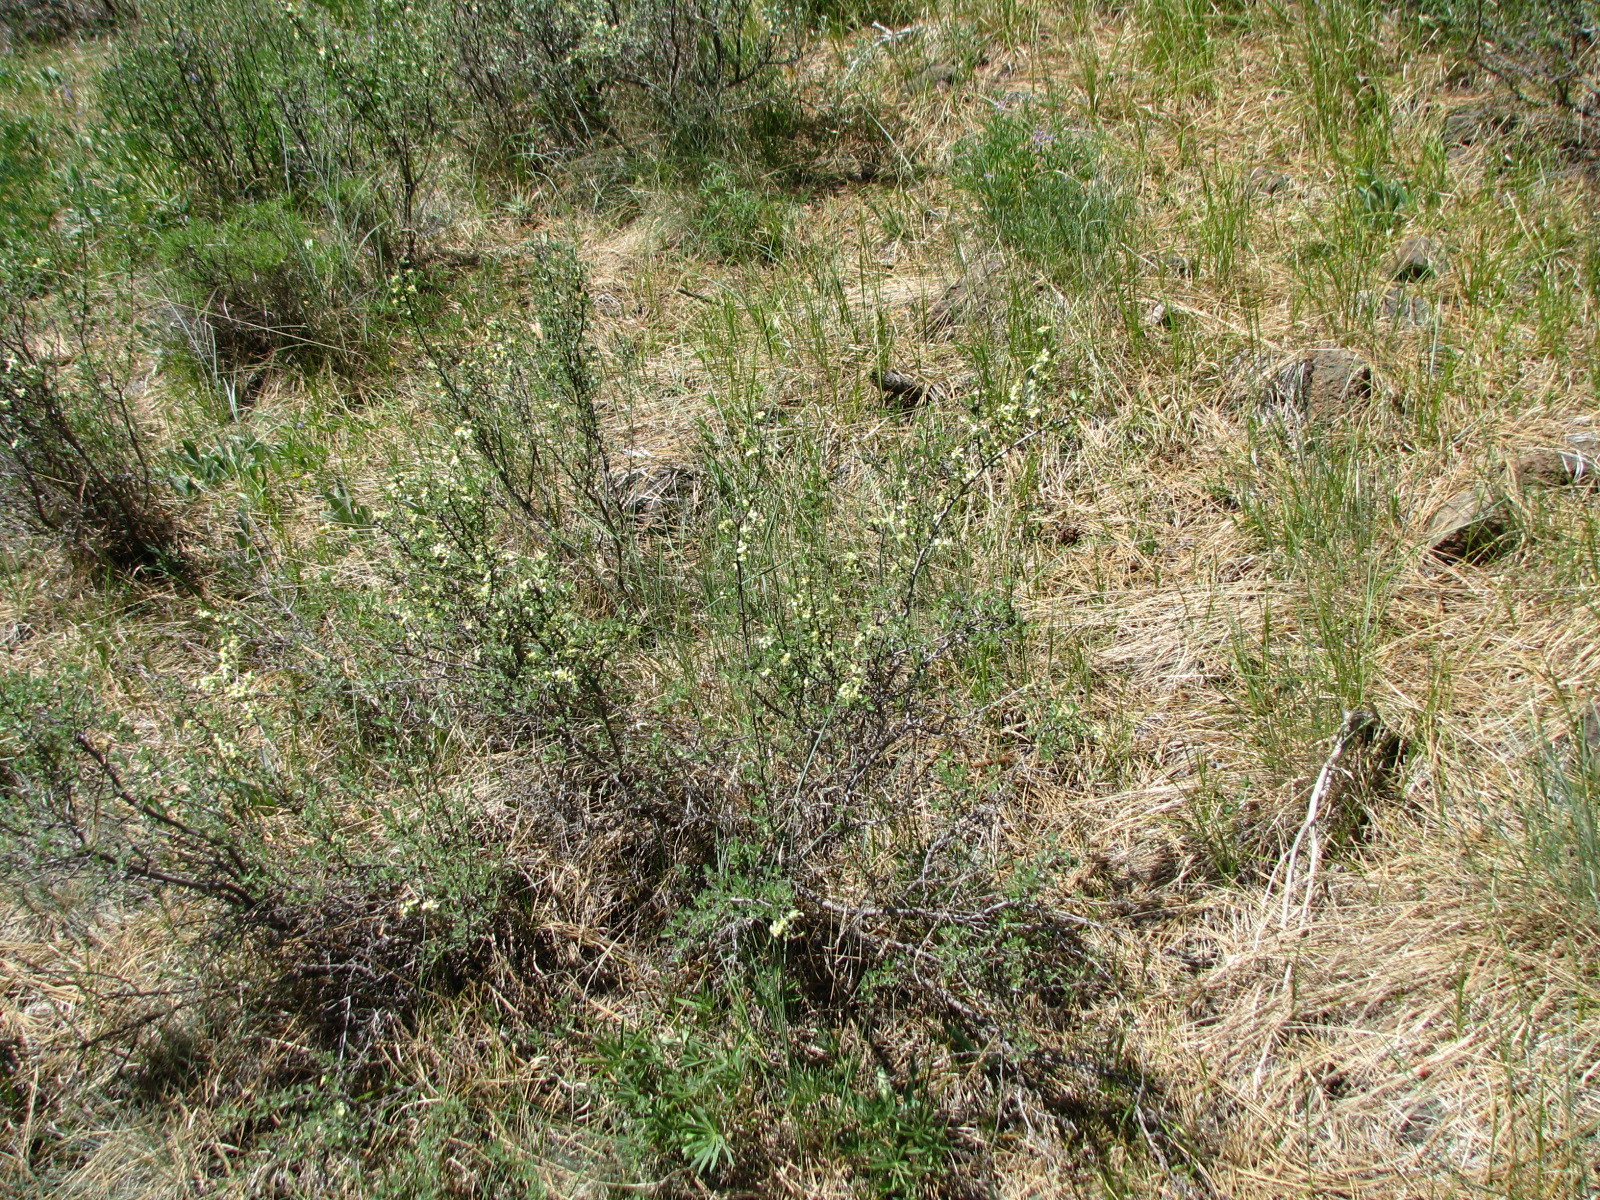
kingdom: Plantae
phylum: Tracheophyta
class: Magnoliopsida
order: Rosales
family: Rosaceae
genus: Purshia
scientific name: Purshia tridentata
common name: Antelope bitterbrush
